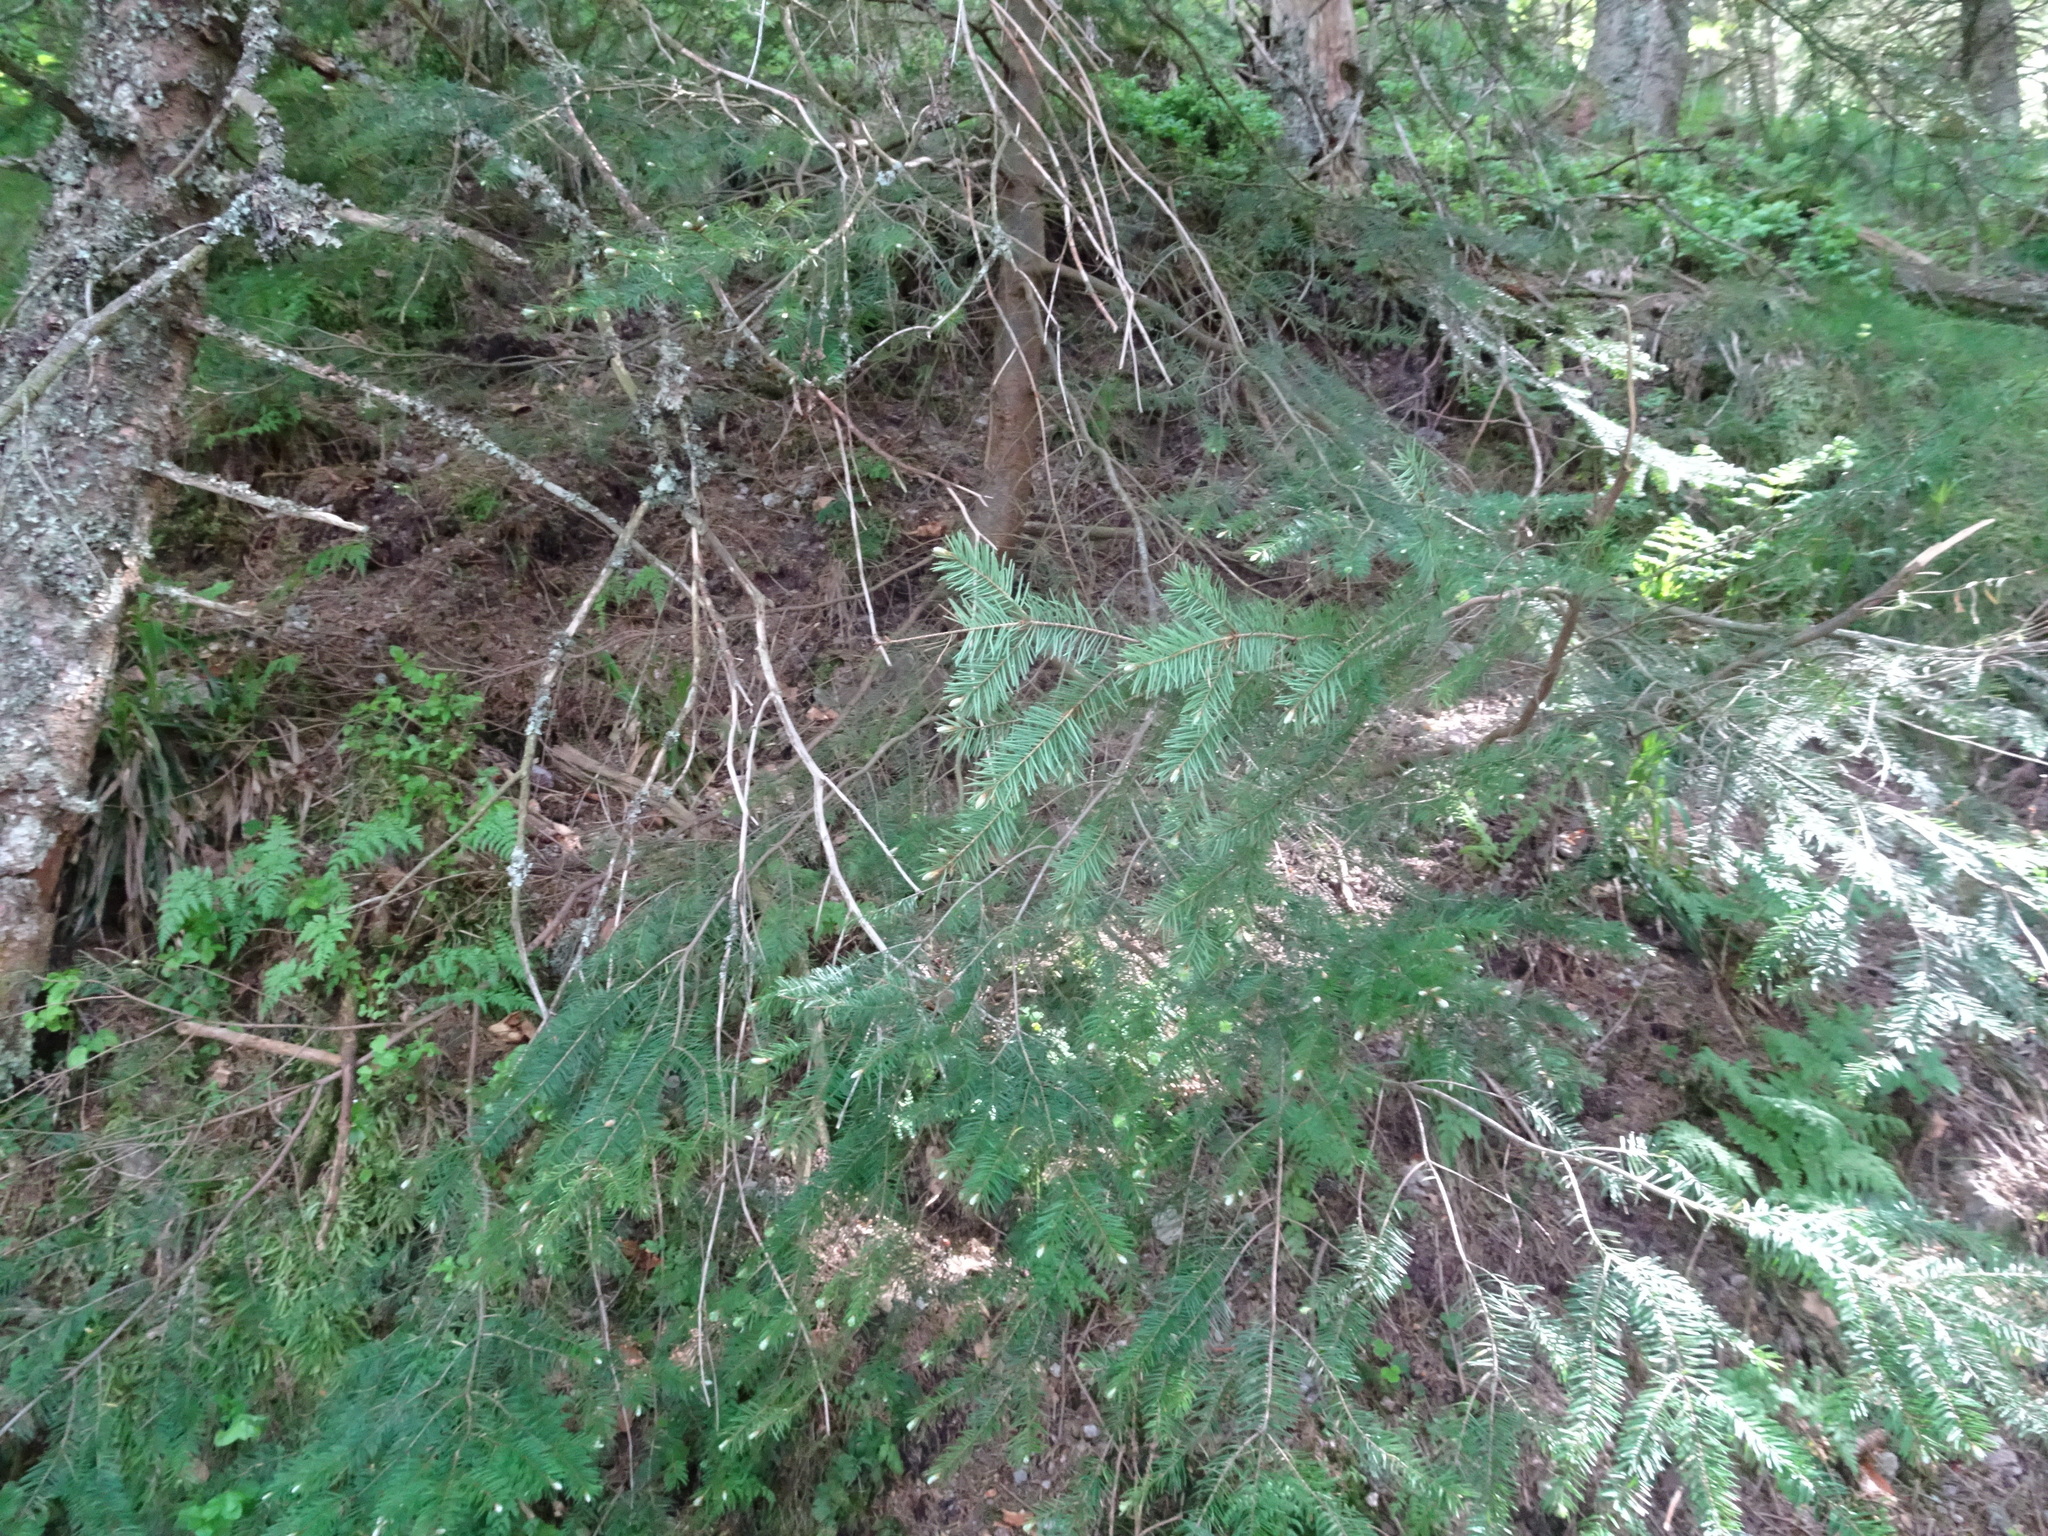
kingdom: Plantae
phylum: Tracheophyta
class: Pinopsida
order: Pinales
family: Pinaceae
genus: Pseudotsuga
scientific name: Pseudotsuga menziesii
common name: Douglas fir
